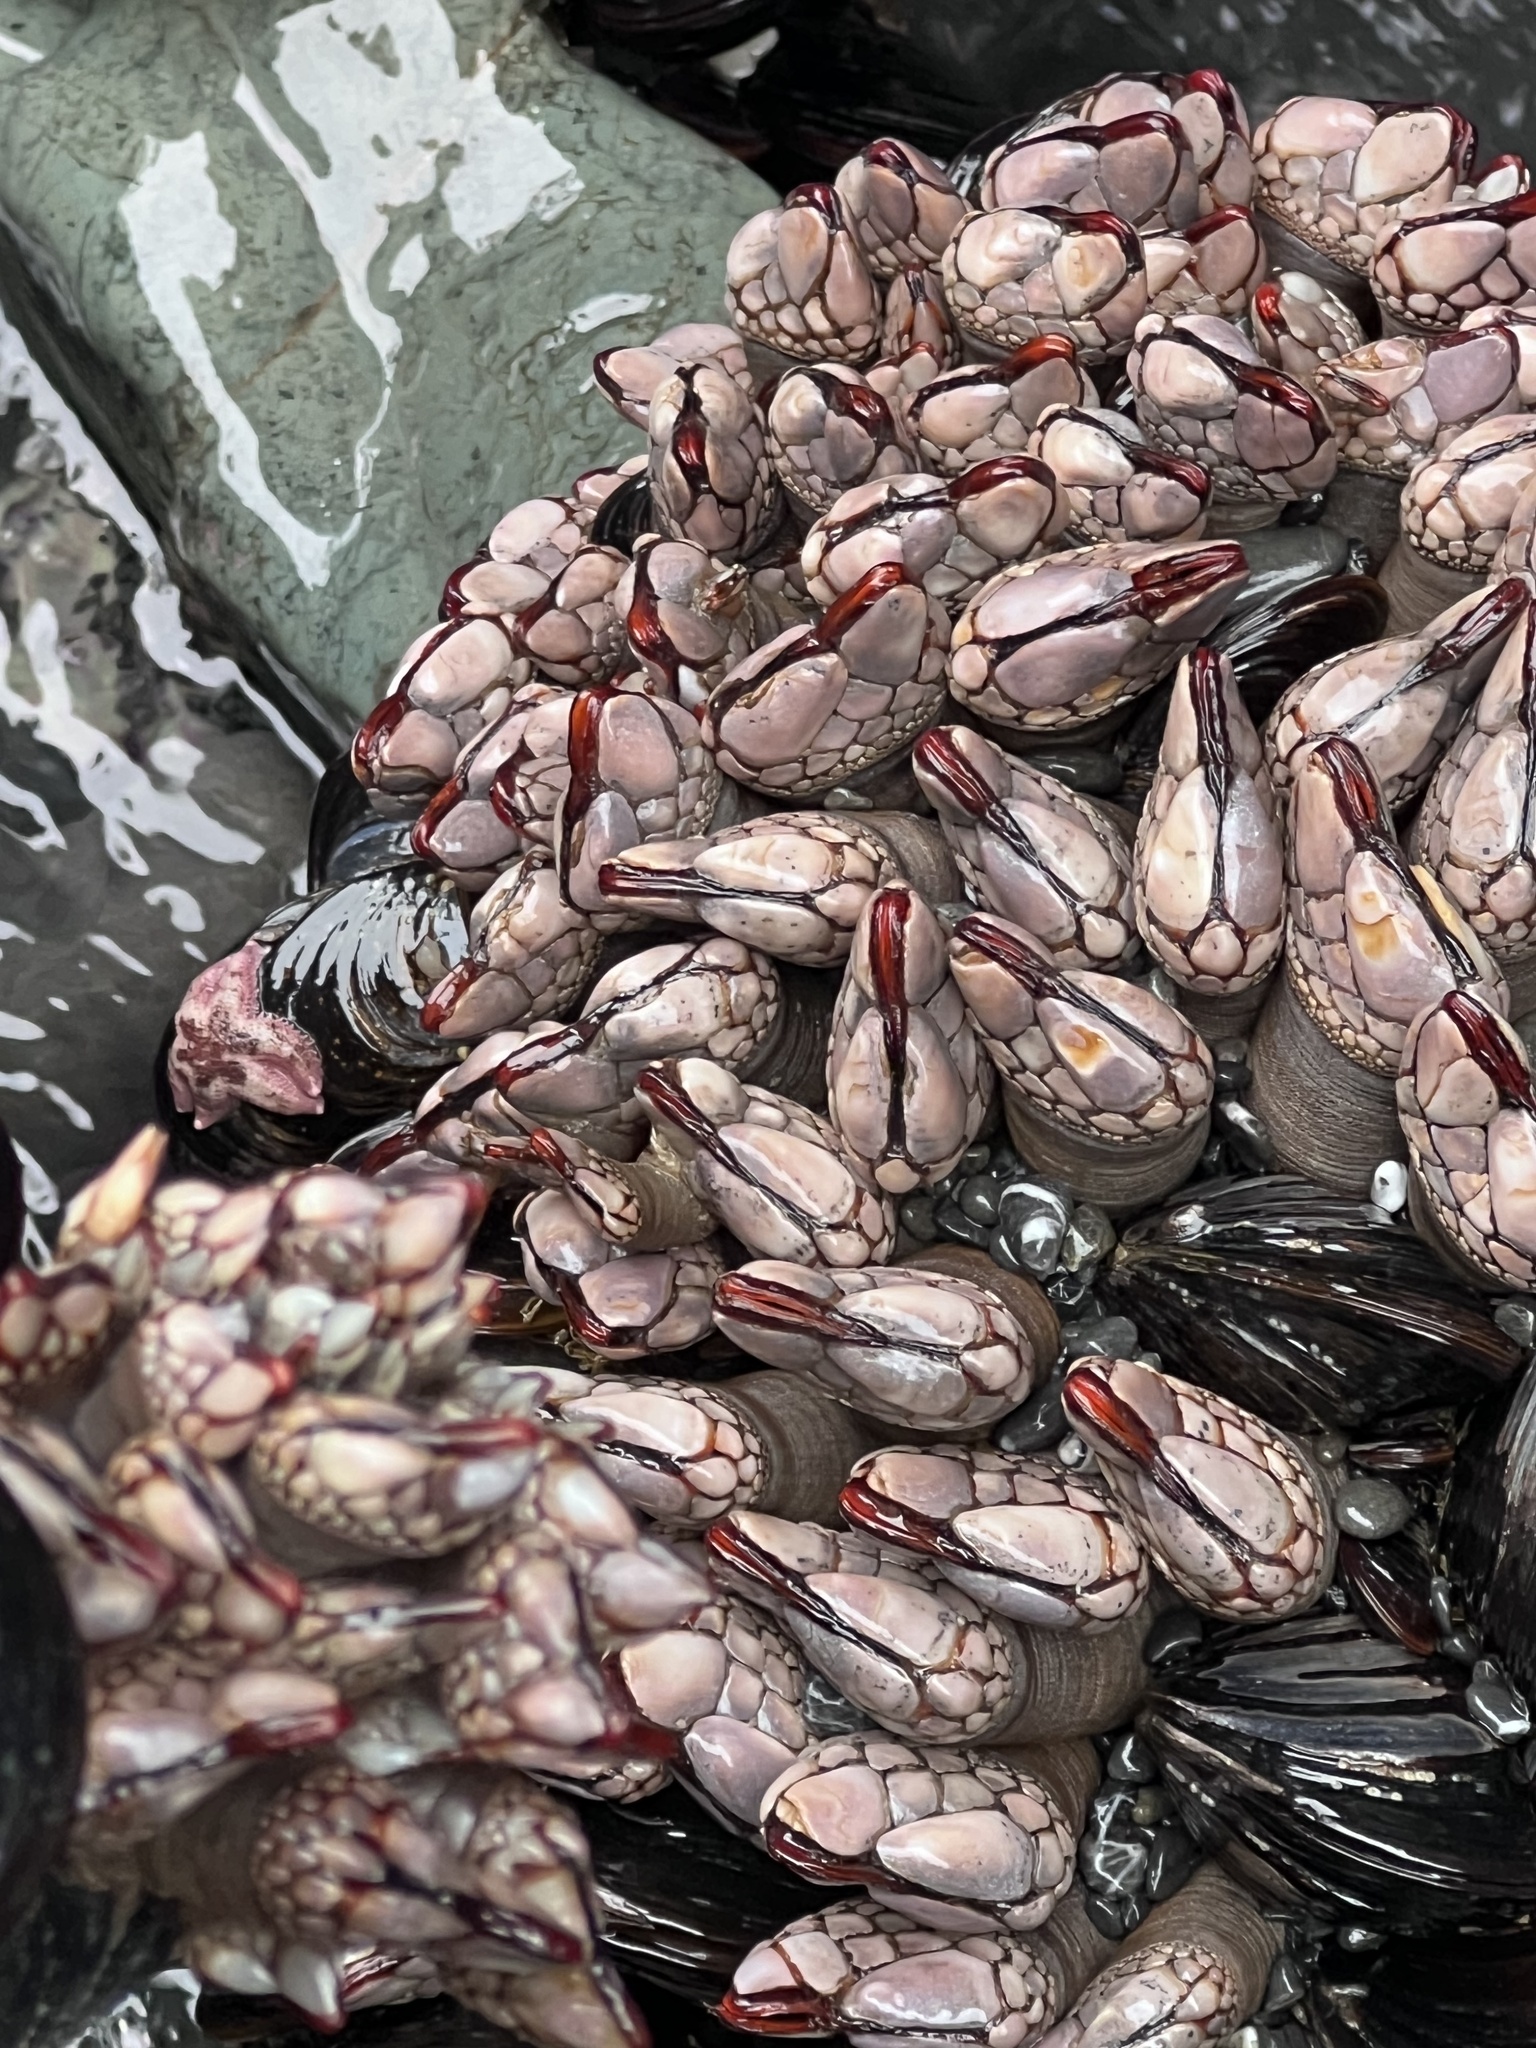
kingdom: Animalia
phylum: Arthropoda
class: Maxillopoda
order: Pedunculata
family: Pollicipedidae
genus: Pollicipes
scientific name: Pollicipes polymerus
